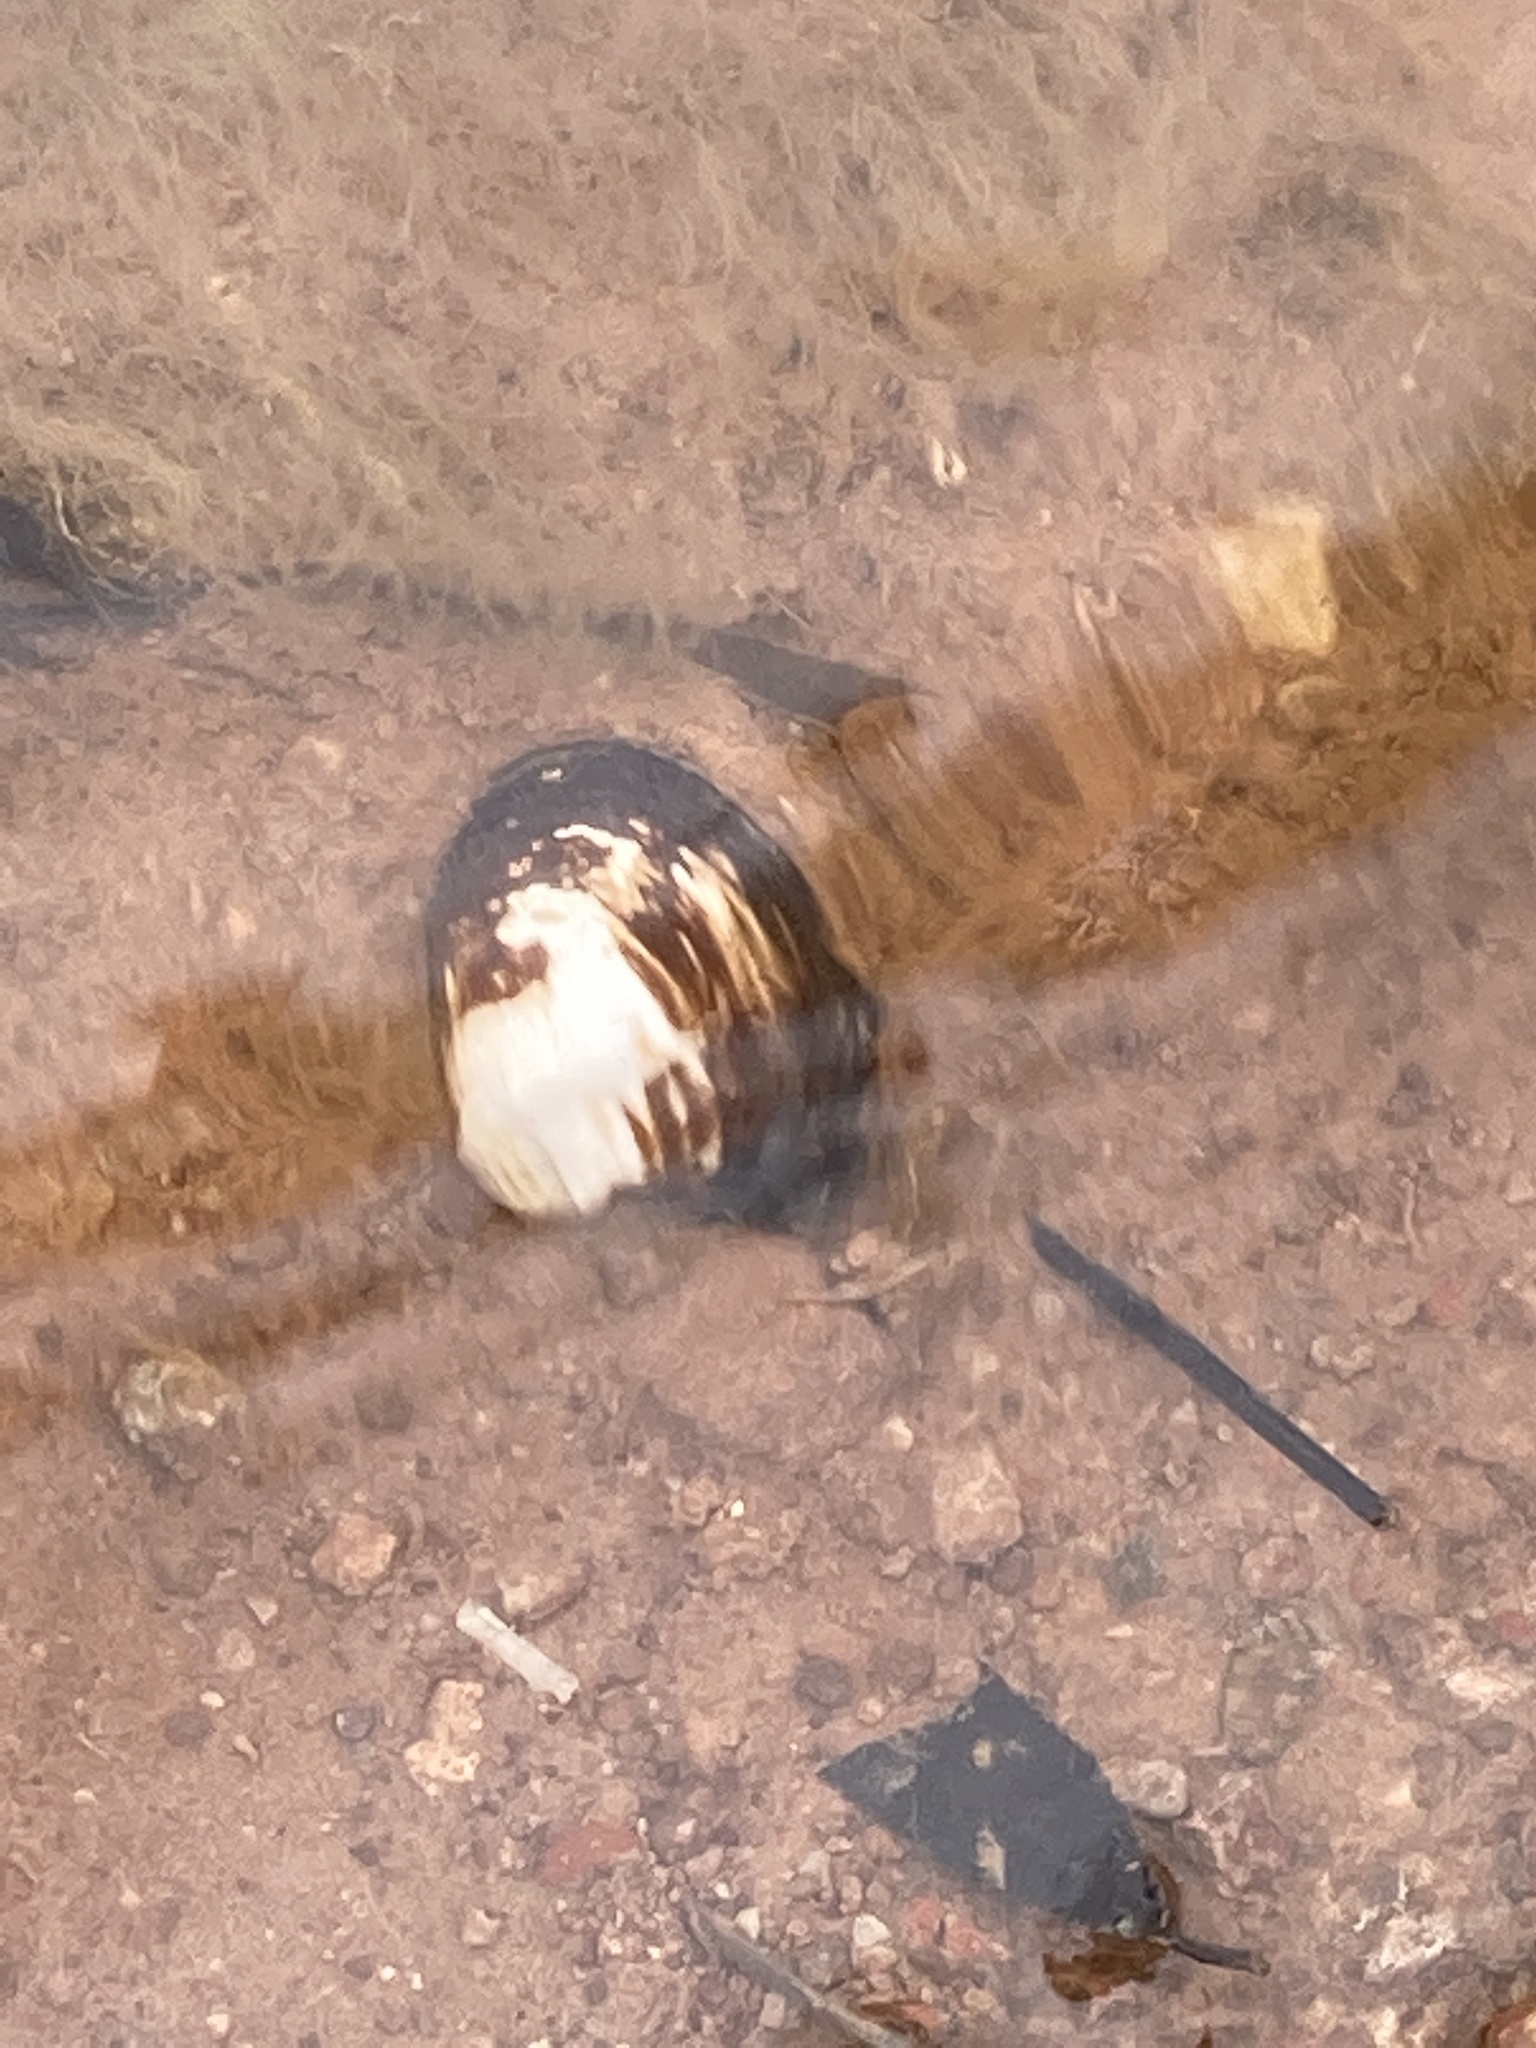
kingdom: Animalia
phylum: Mollusca
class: Bivalvia
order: Venerida
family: Cyrenidae
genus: Corbicula
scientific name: Corbicula fluminea
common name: Asian clam
